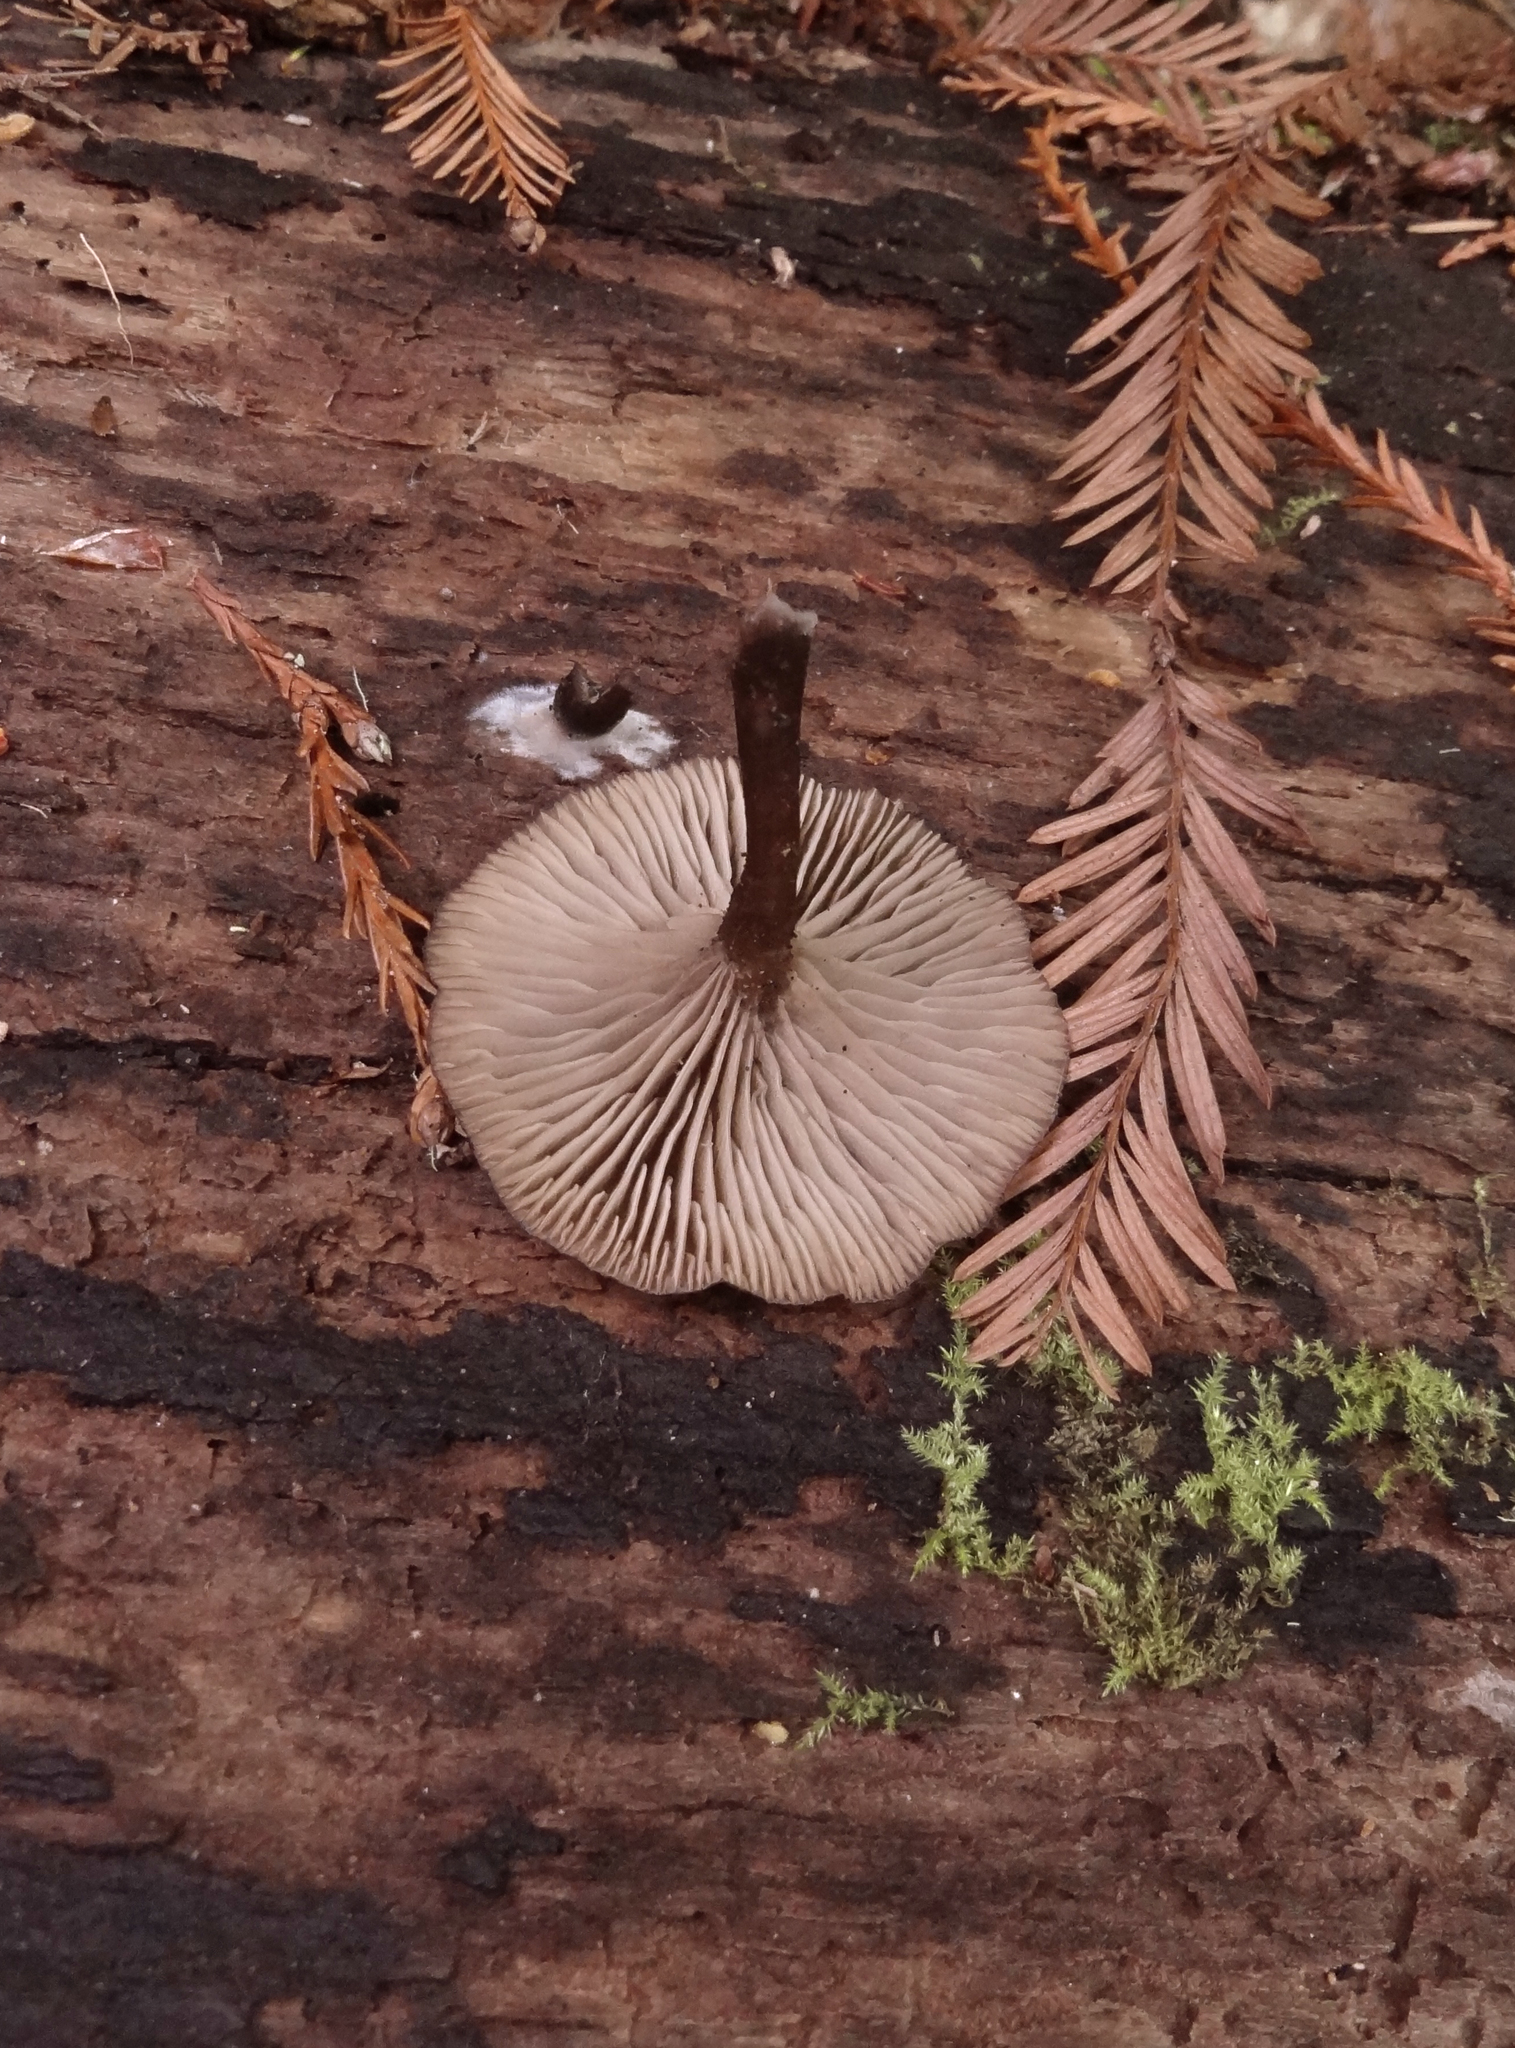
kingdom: Fungi
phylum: Basidiomycota
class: Agaricomycetes
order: Agaricales
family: Hygrophoraceae
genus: Arrhenia
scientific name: Arrhenia epichysium
